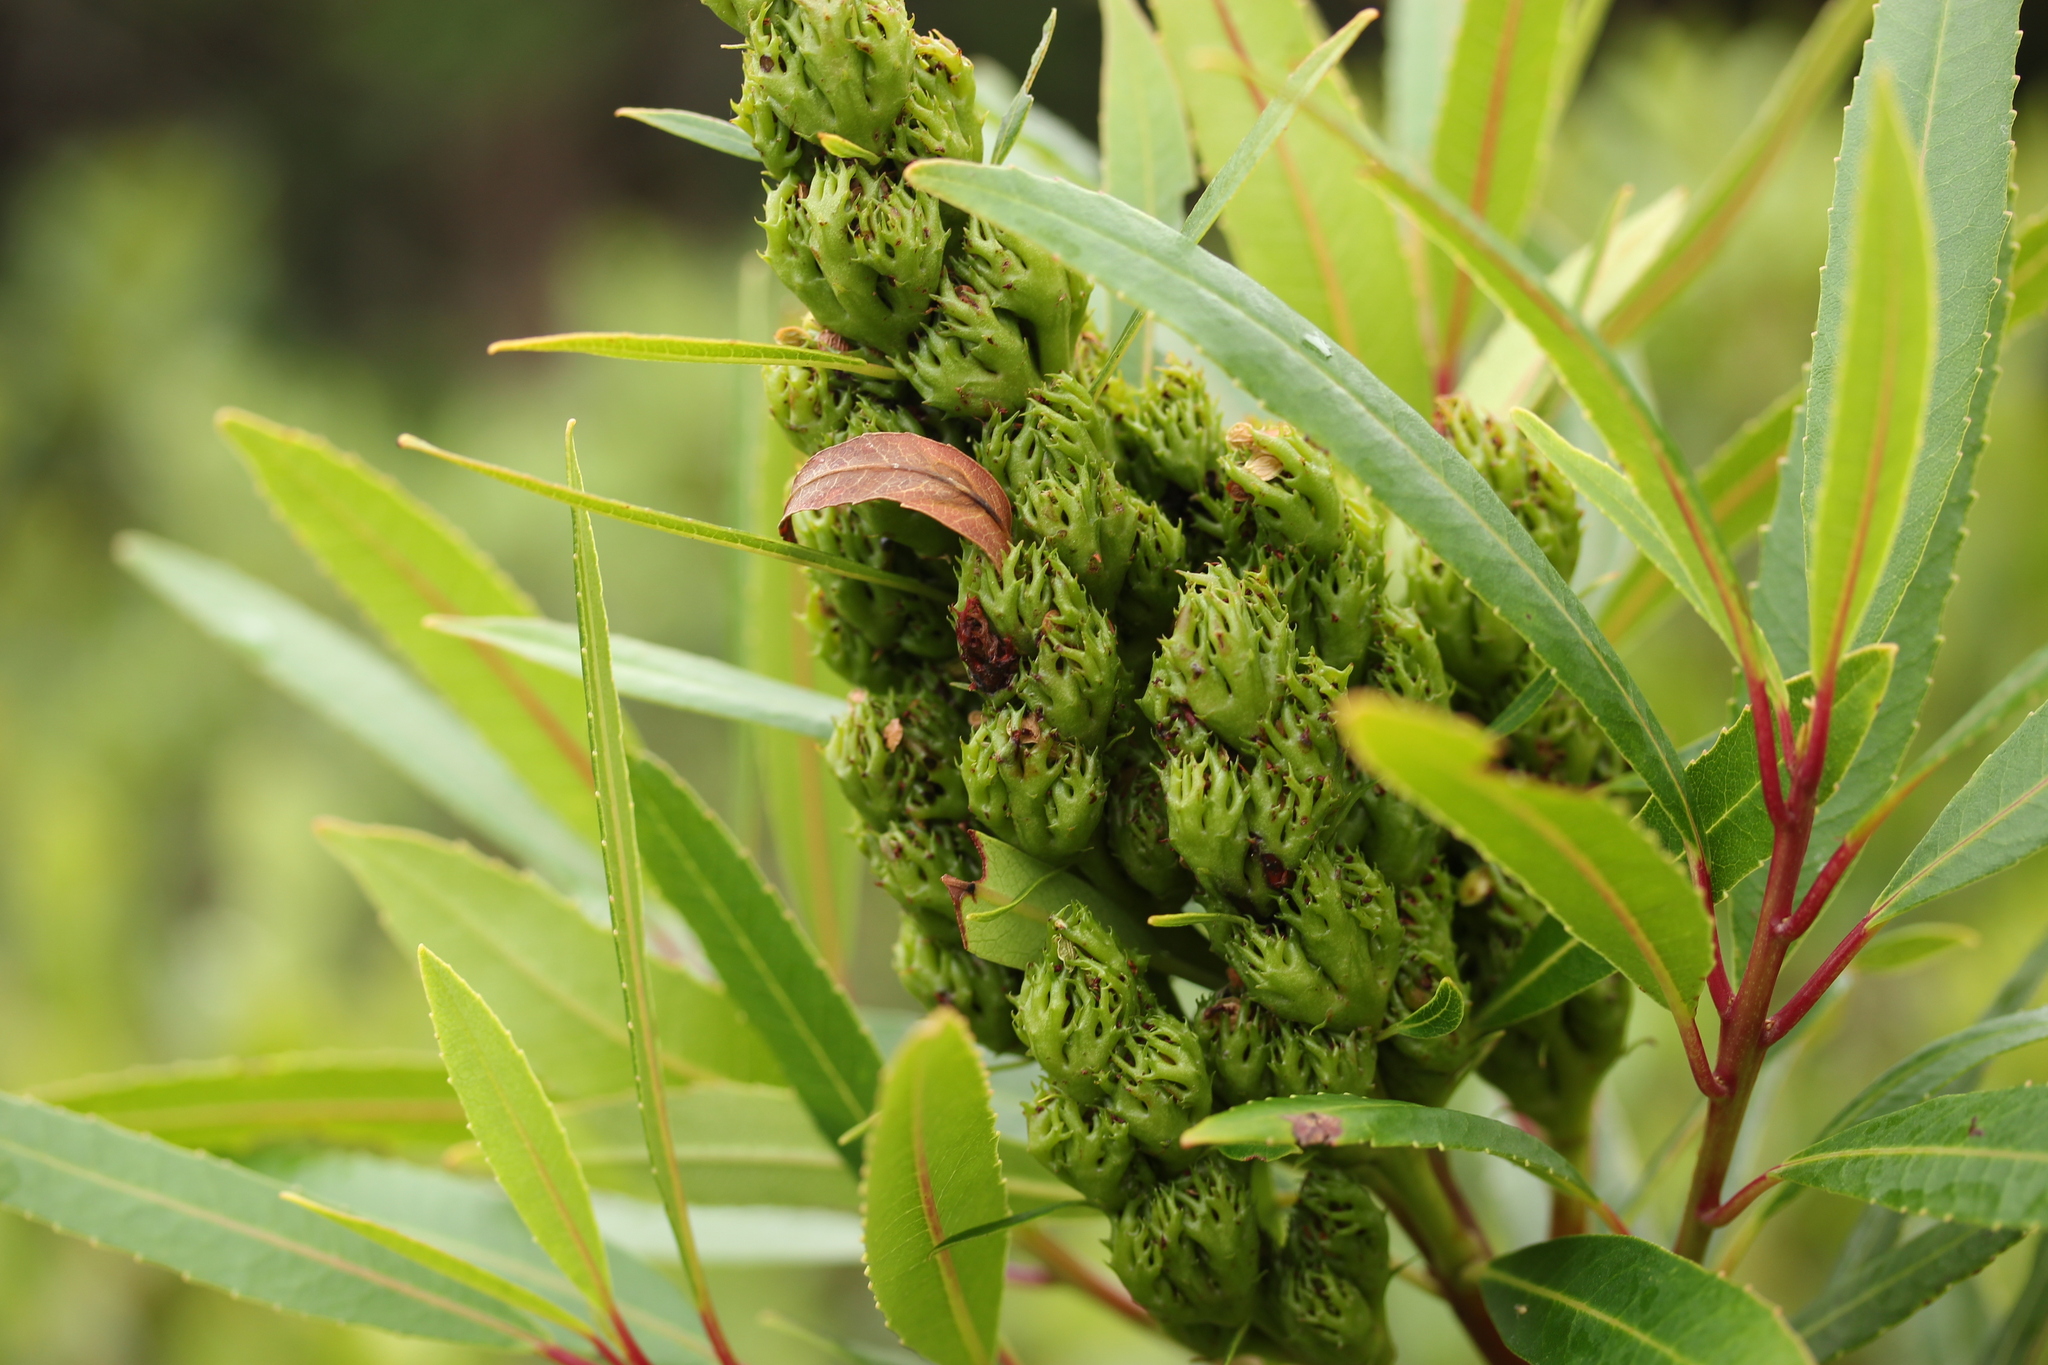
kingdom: Plantae
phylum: Tracheophyta
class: Magnoliopsida
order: Sapindales
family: Anacardiaceae
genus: Laurophyllus
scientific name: Laurophyllus capensis
